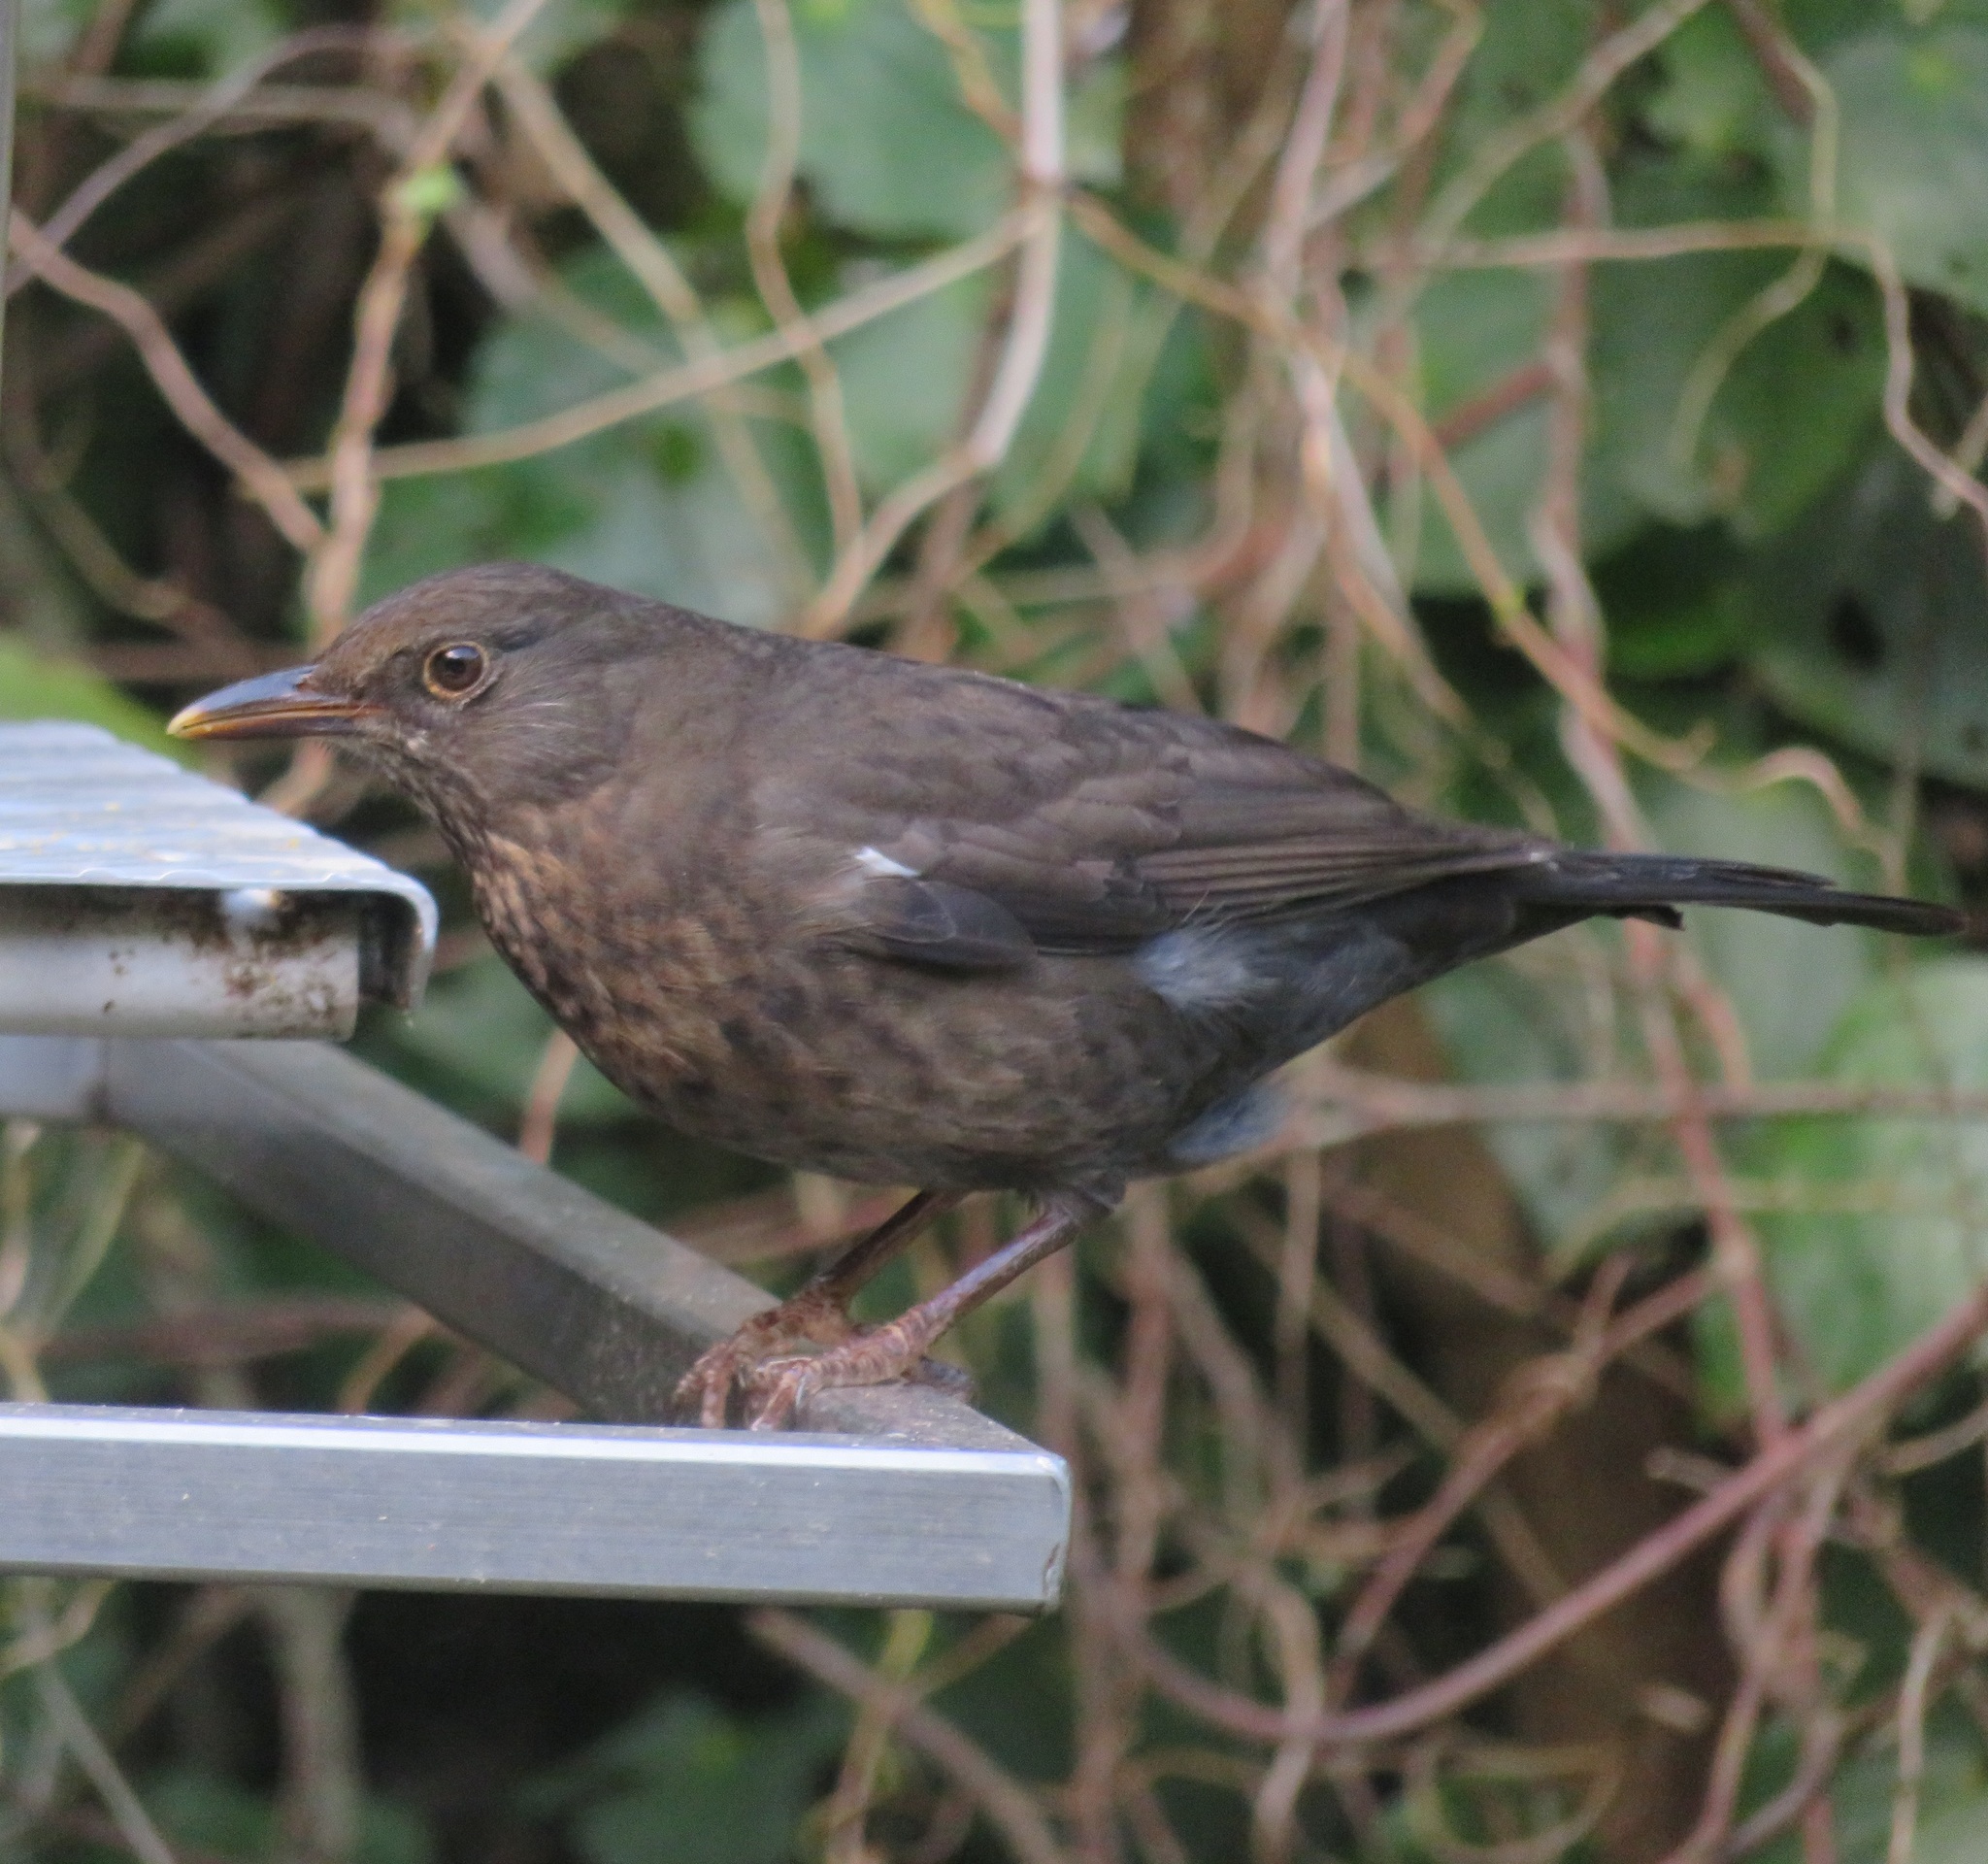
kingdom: Animalia
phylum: Chordata
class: Aves
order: Passeriformes
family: Turdidae
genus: Turdus
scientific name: Turdus merula
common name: Common blackbird
